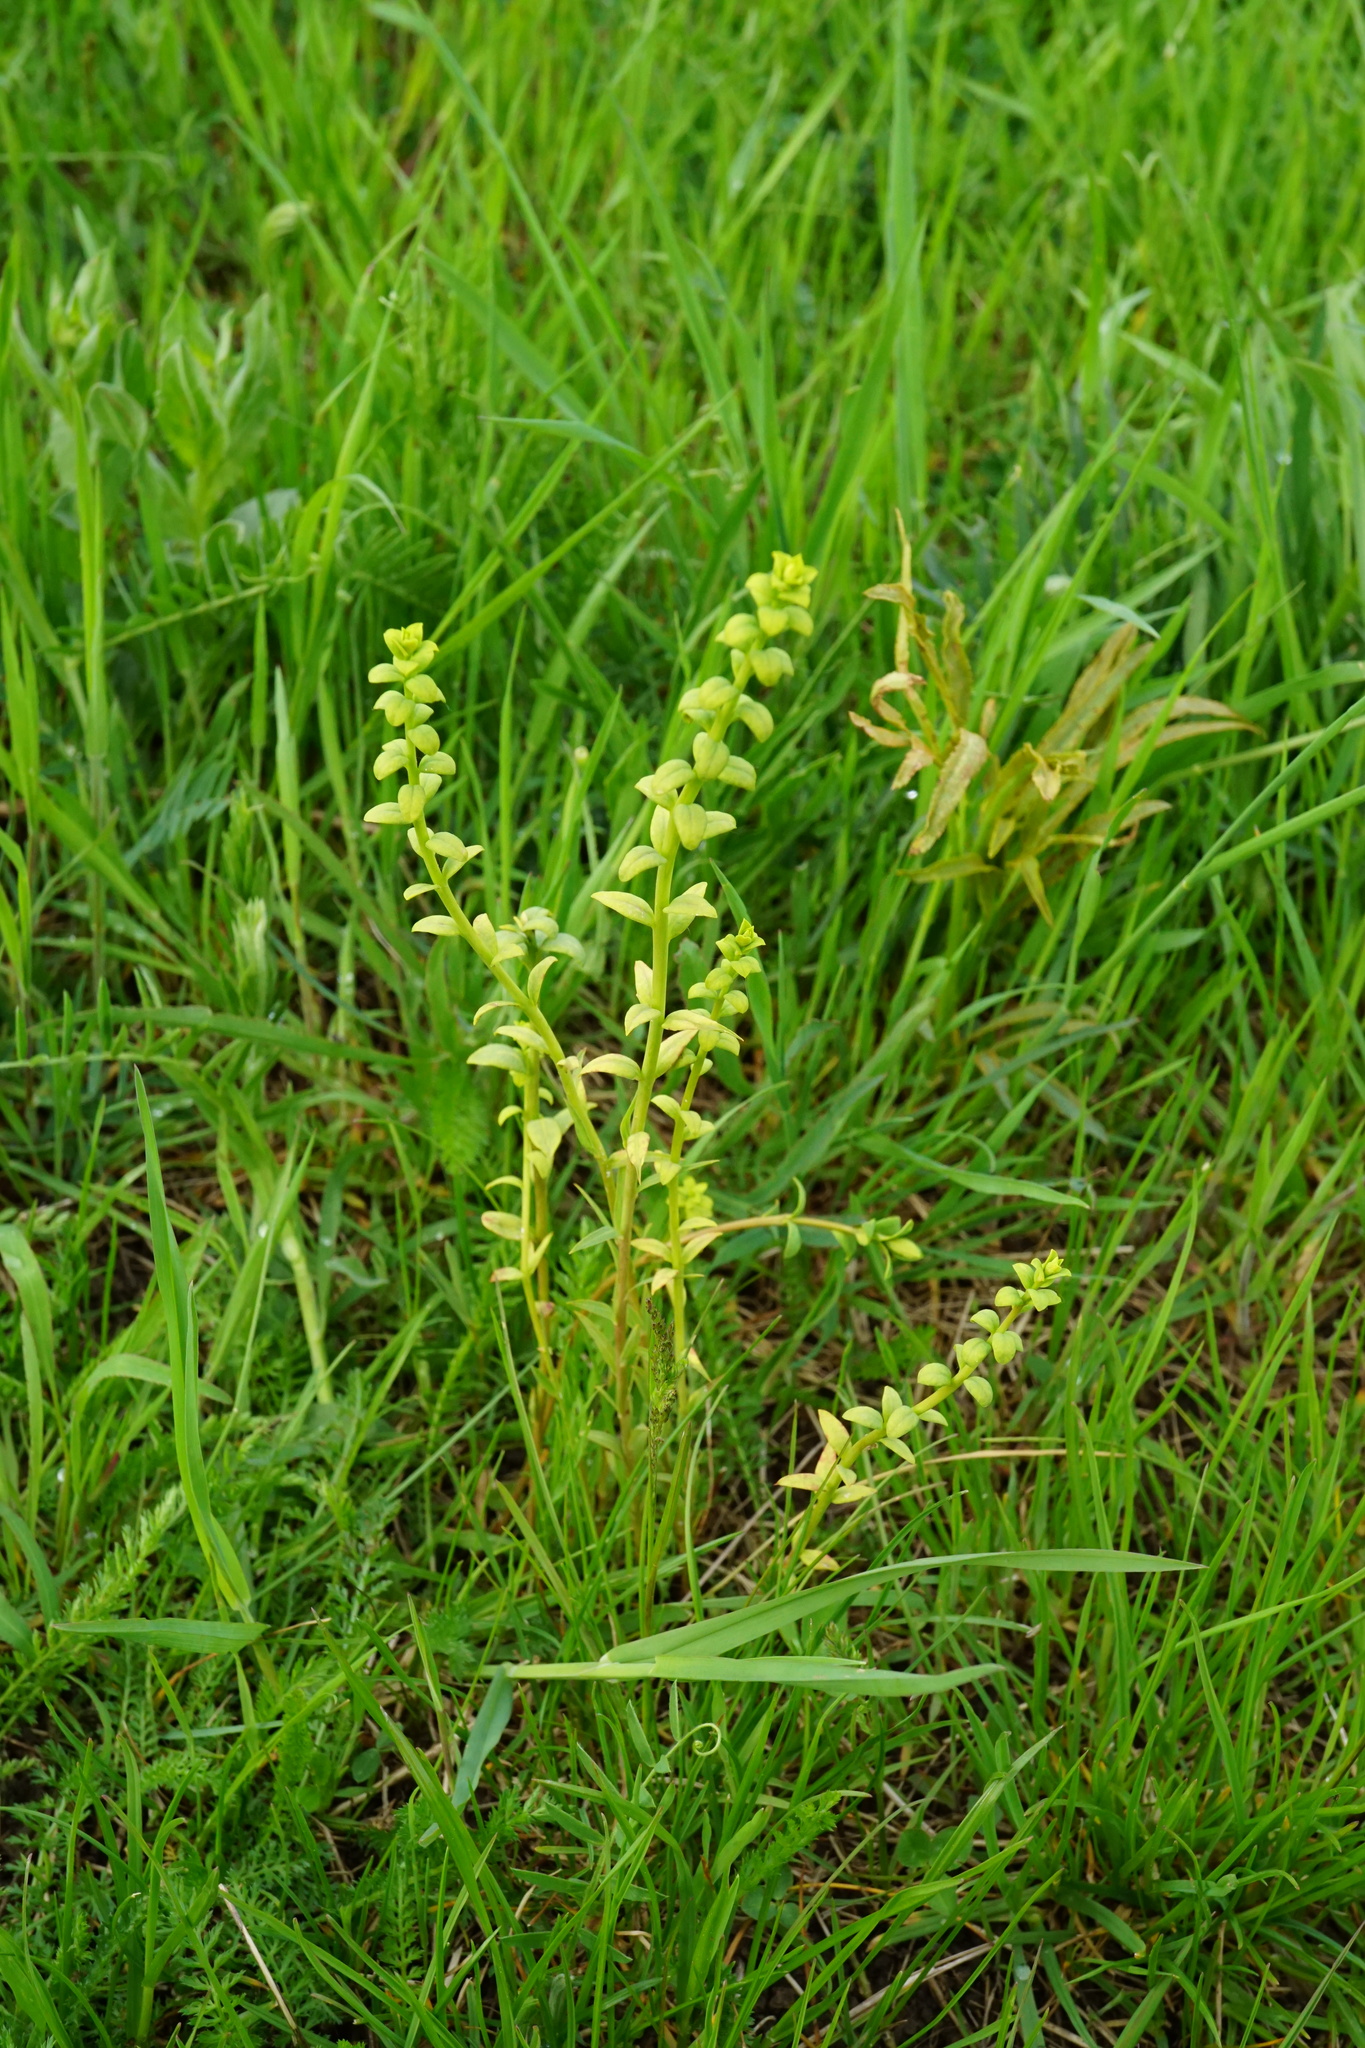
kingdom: Fungi
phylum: Basidiomycota
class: Pucciniomycetes
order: Pucciniales
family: Pucciniaceae
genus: Uromyces
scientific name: Uromyces
